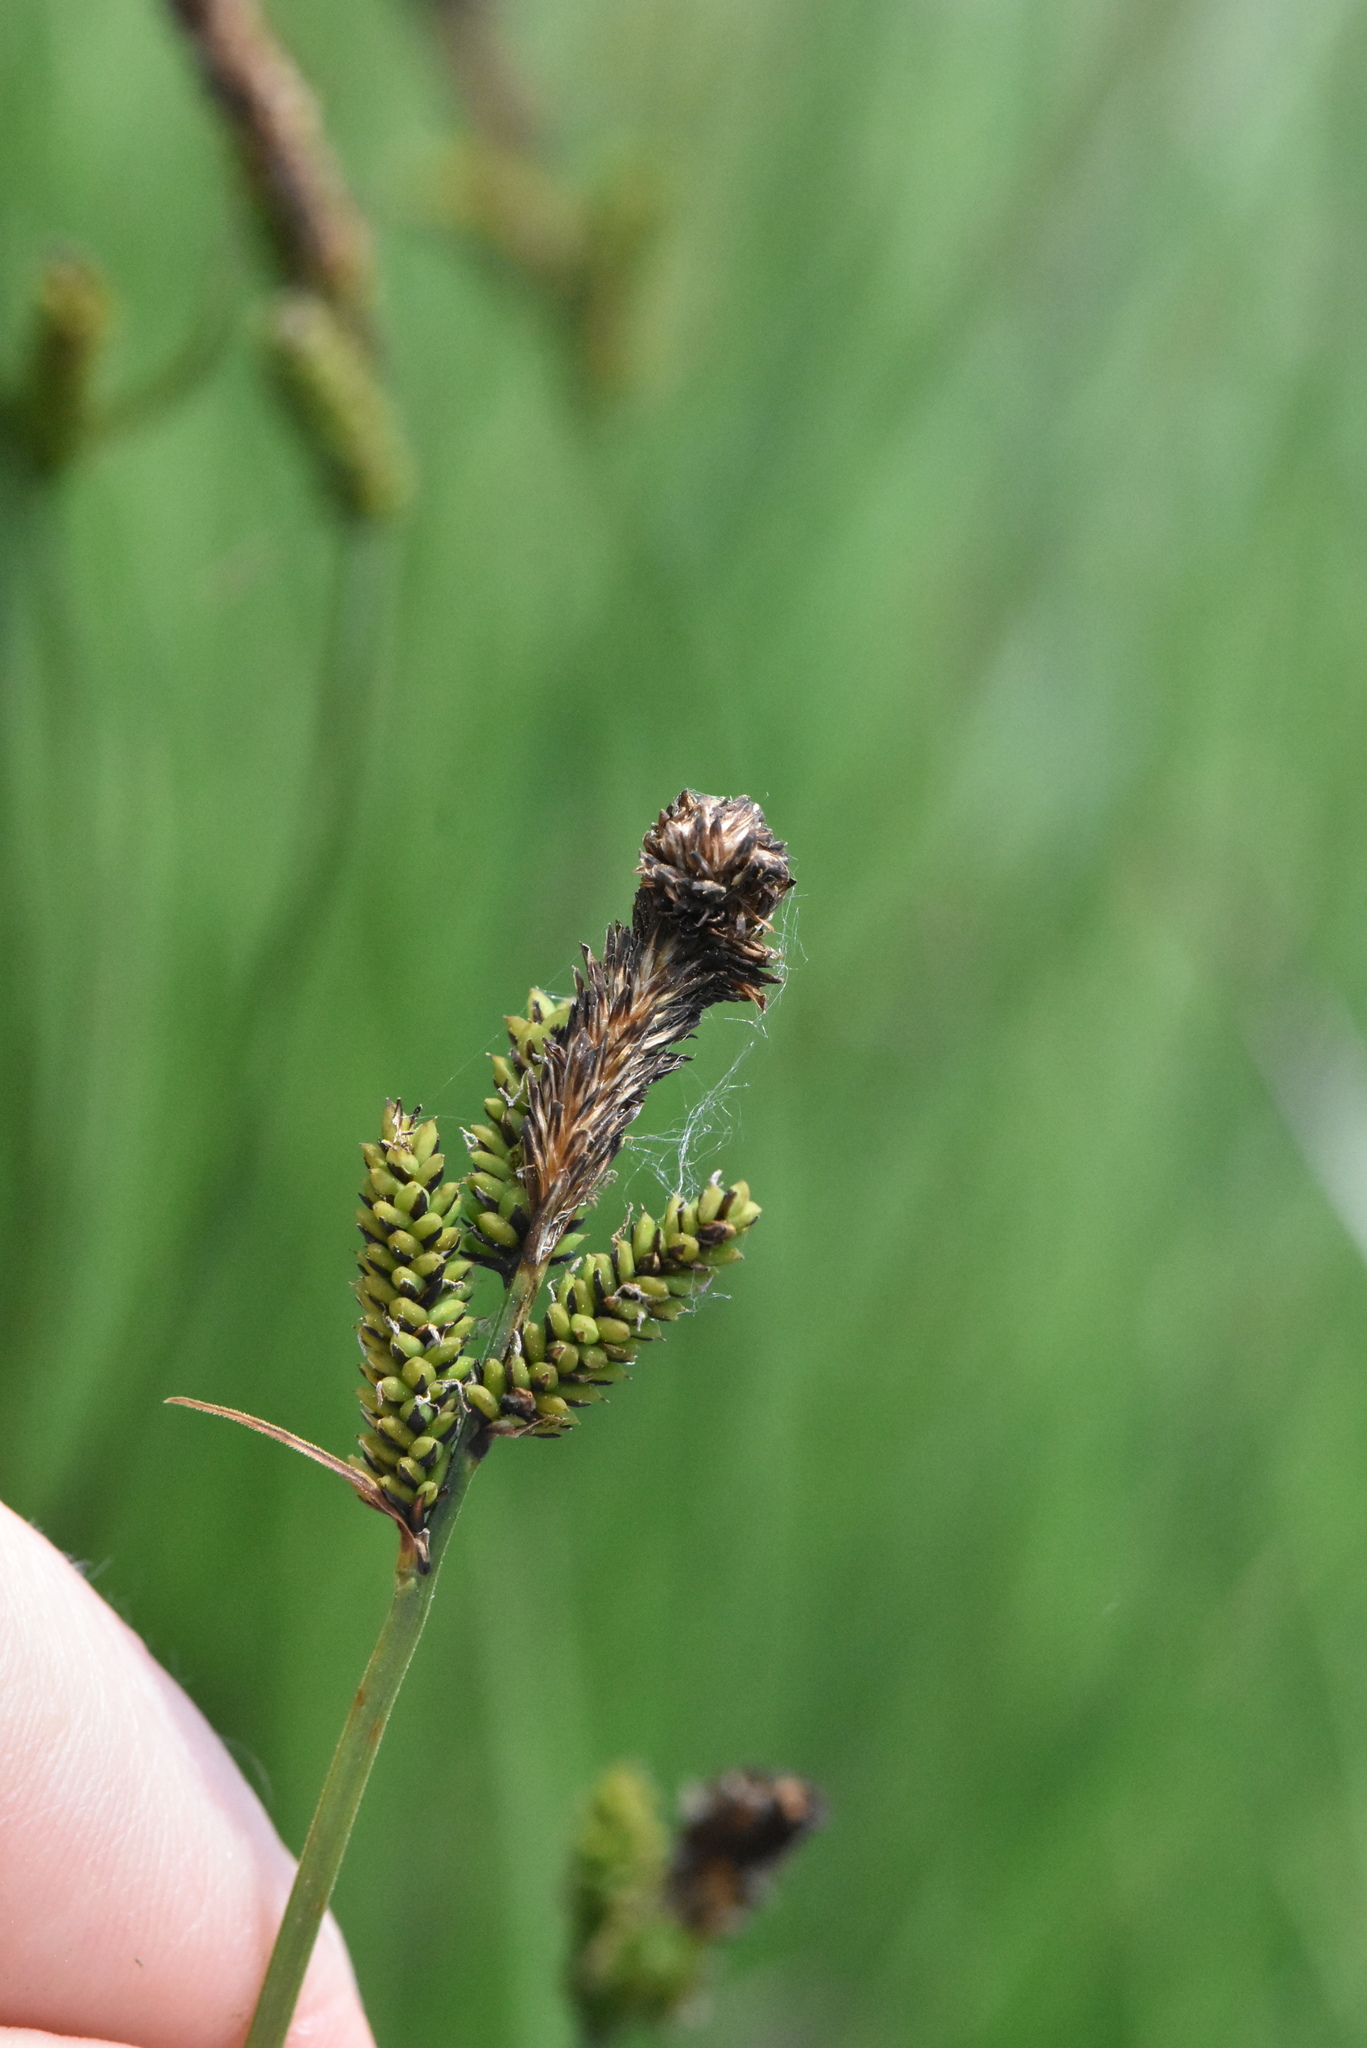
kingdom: Plantae
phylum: Tracheophyta
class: Liliopsida
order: Poales
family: Cyperaceae
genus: Carex
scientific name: Carex cespitosa
